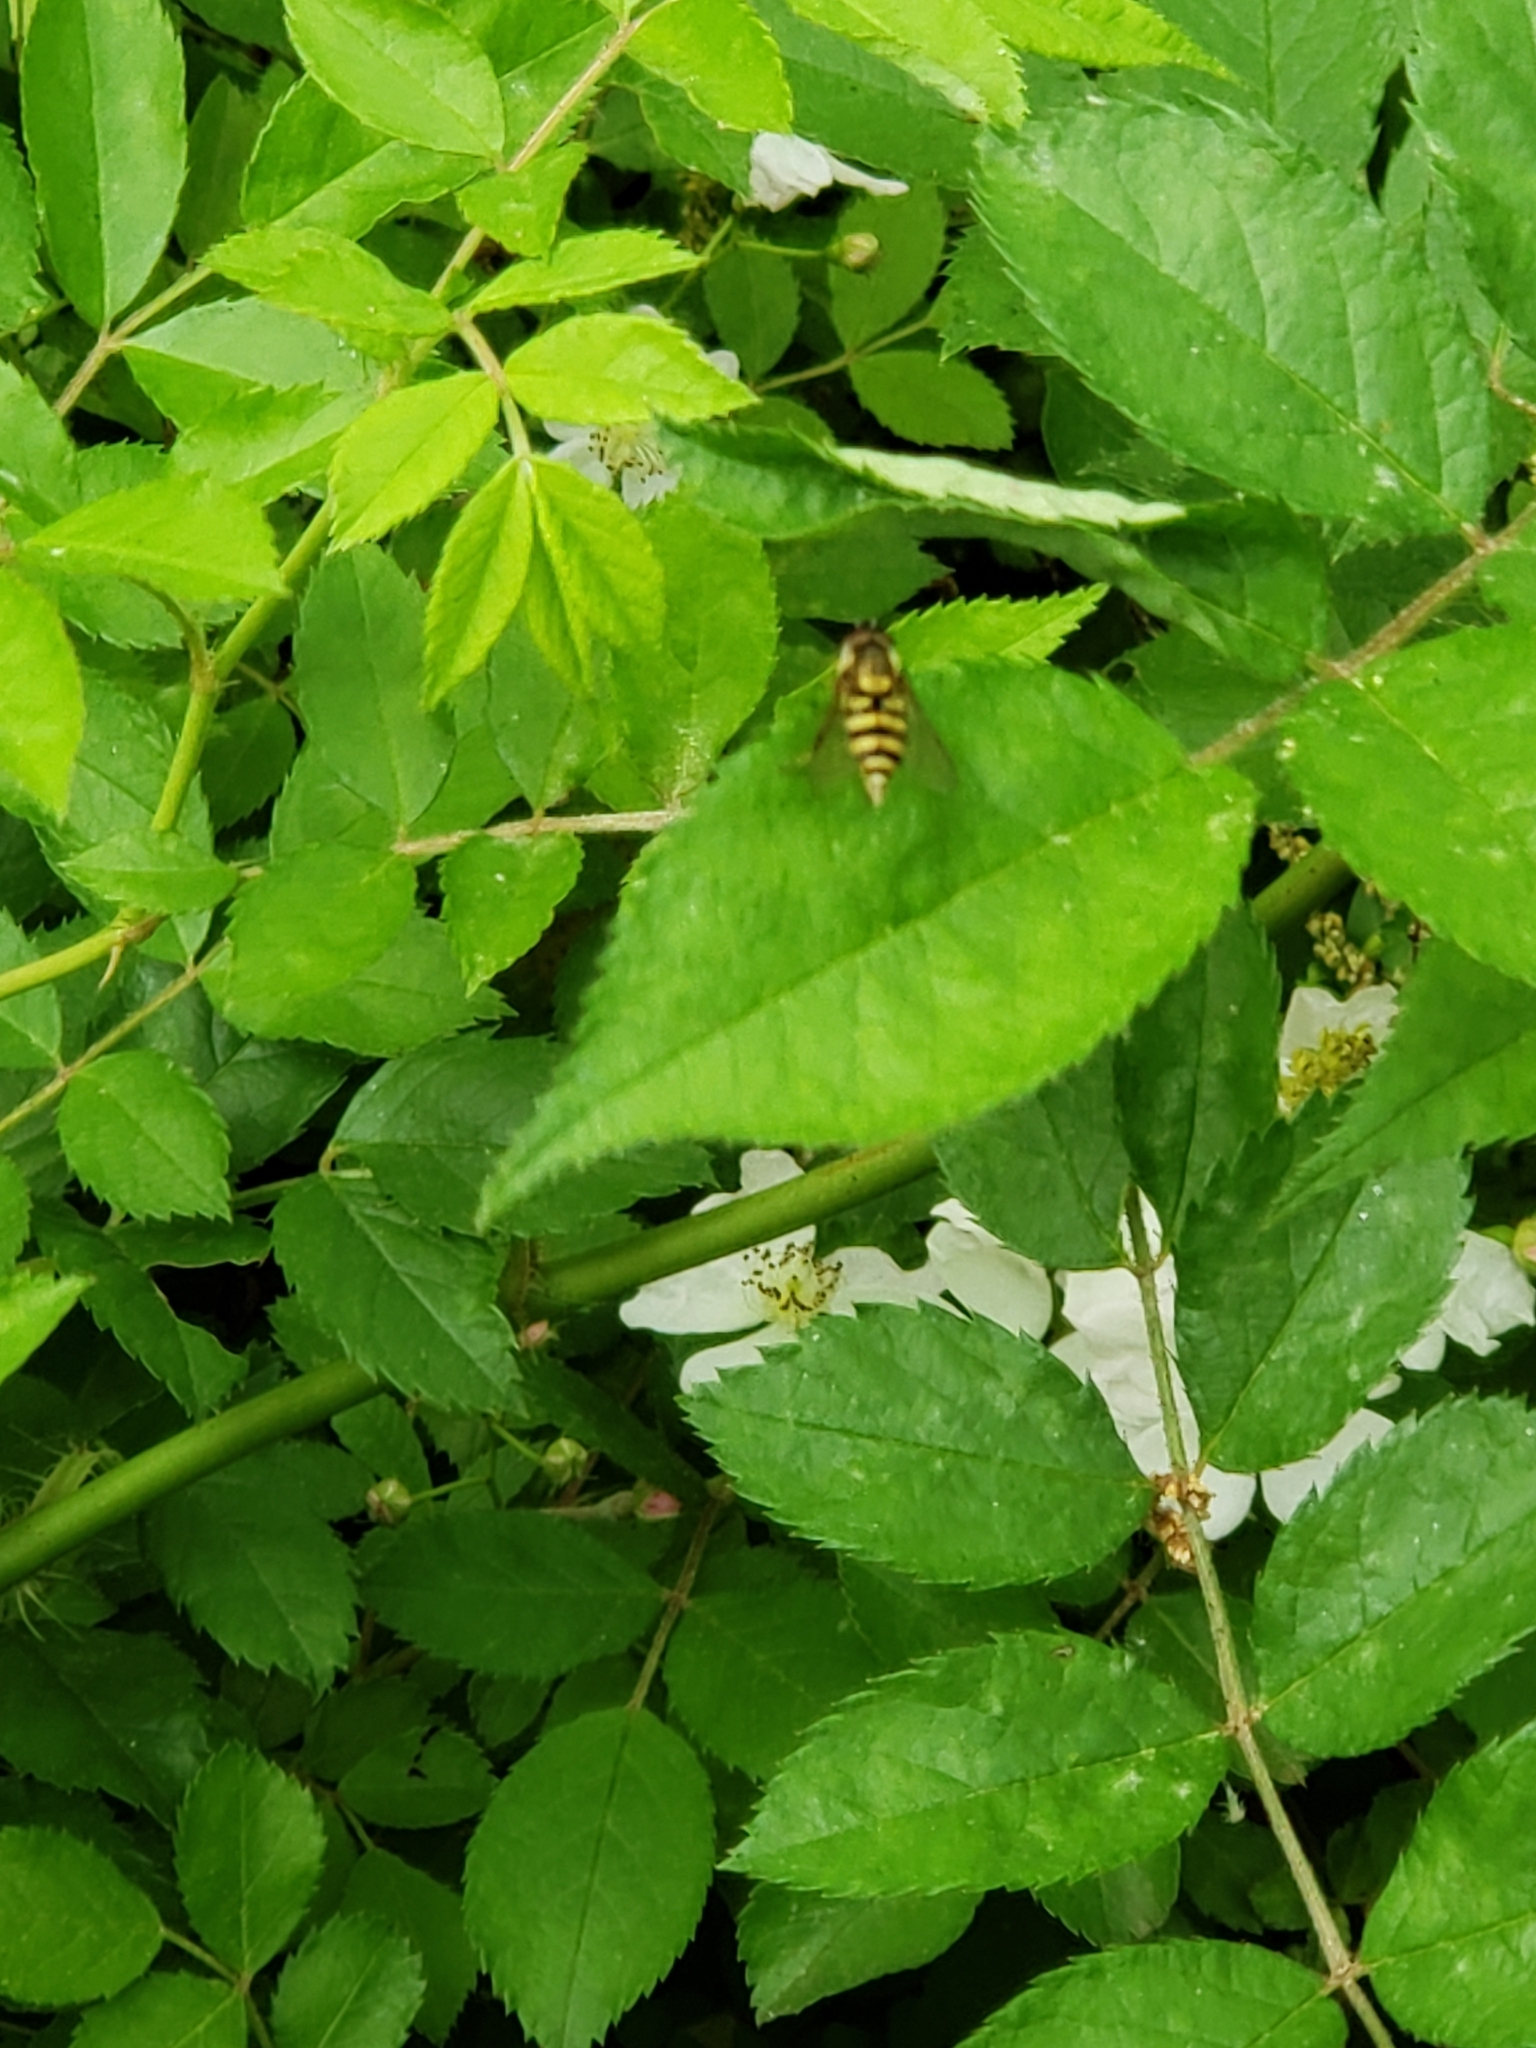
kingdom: Animalia
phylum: Arthropoda
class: Insecta
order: Diptera
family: Syrphidae
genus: Syrphus
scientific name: Syrphus
